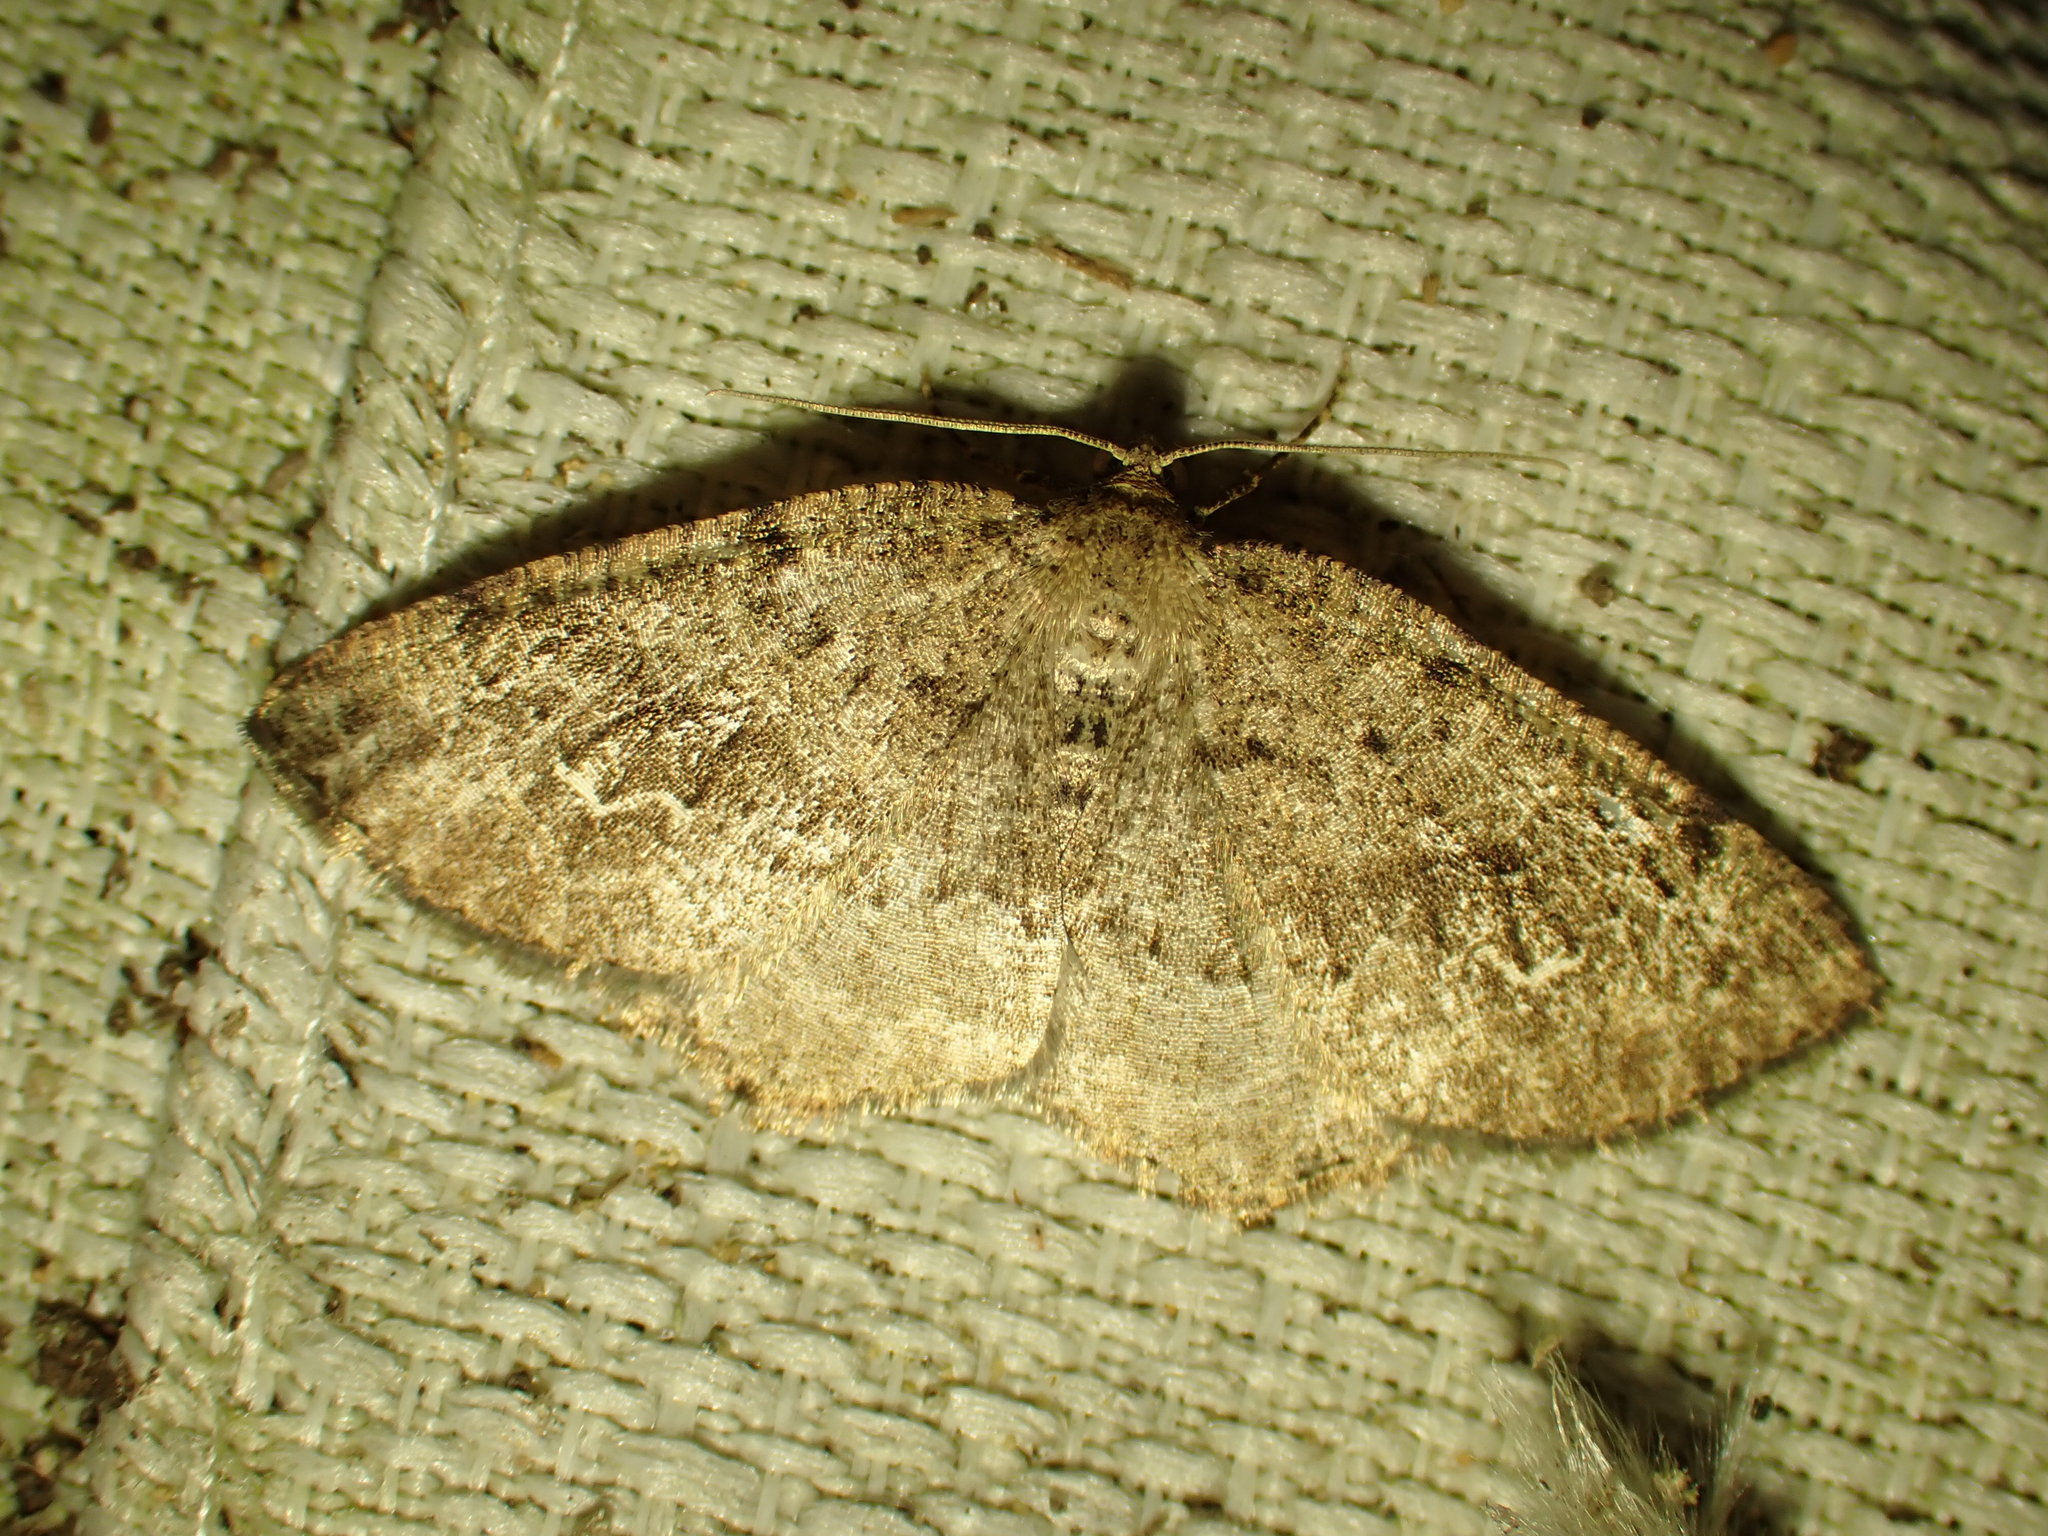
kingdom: Animalia
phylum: Arthropoda
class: Insecta
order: Lepidoptera
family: Geometridae
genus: Homochlodes
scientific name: Homochlodes fritillaria
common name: Pale homochlodes
